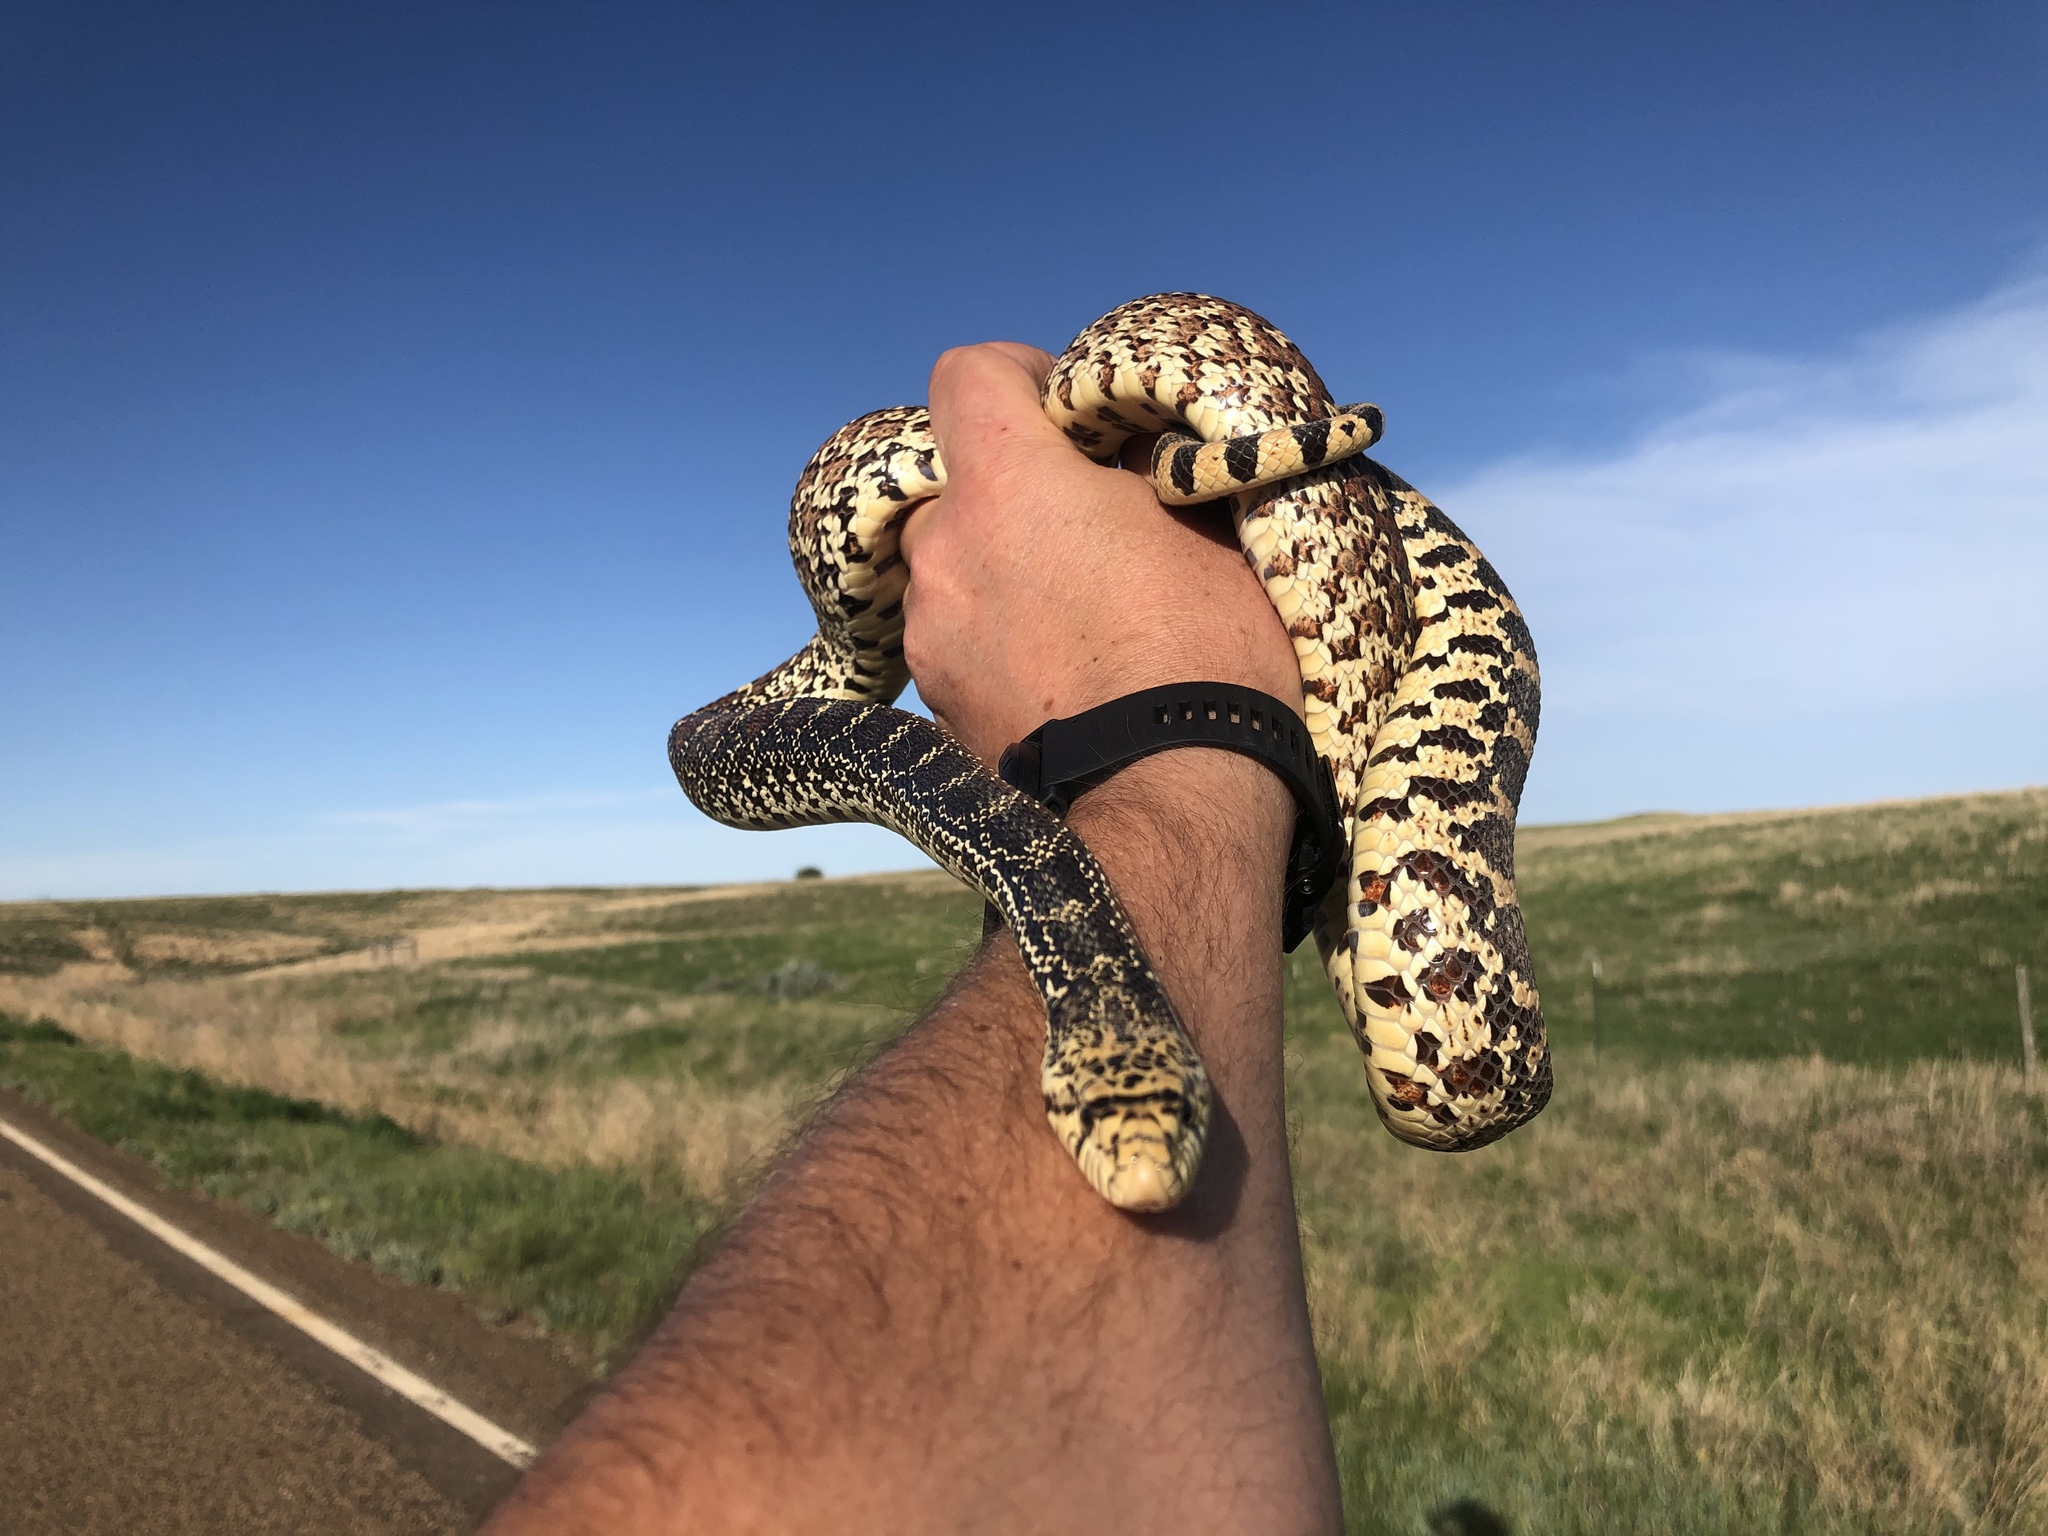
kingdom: Animalia
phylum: Chordata
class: Squamata
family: Colubridae
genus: Pituophis
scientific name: Pituophis catenifer
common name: Gopher snake
